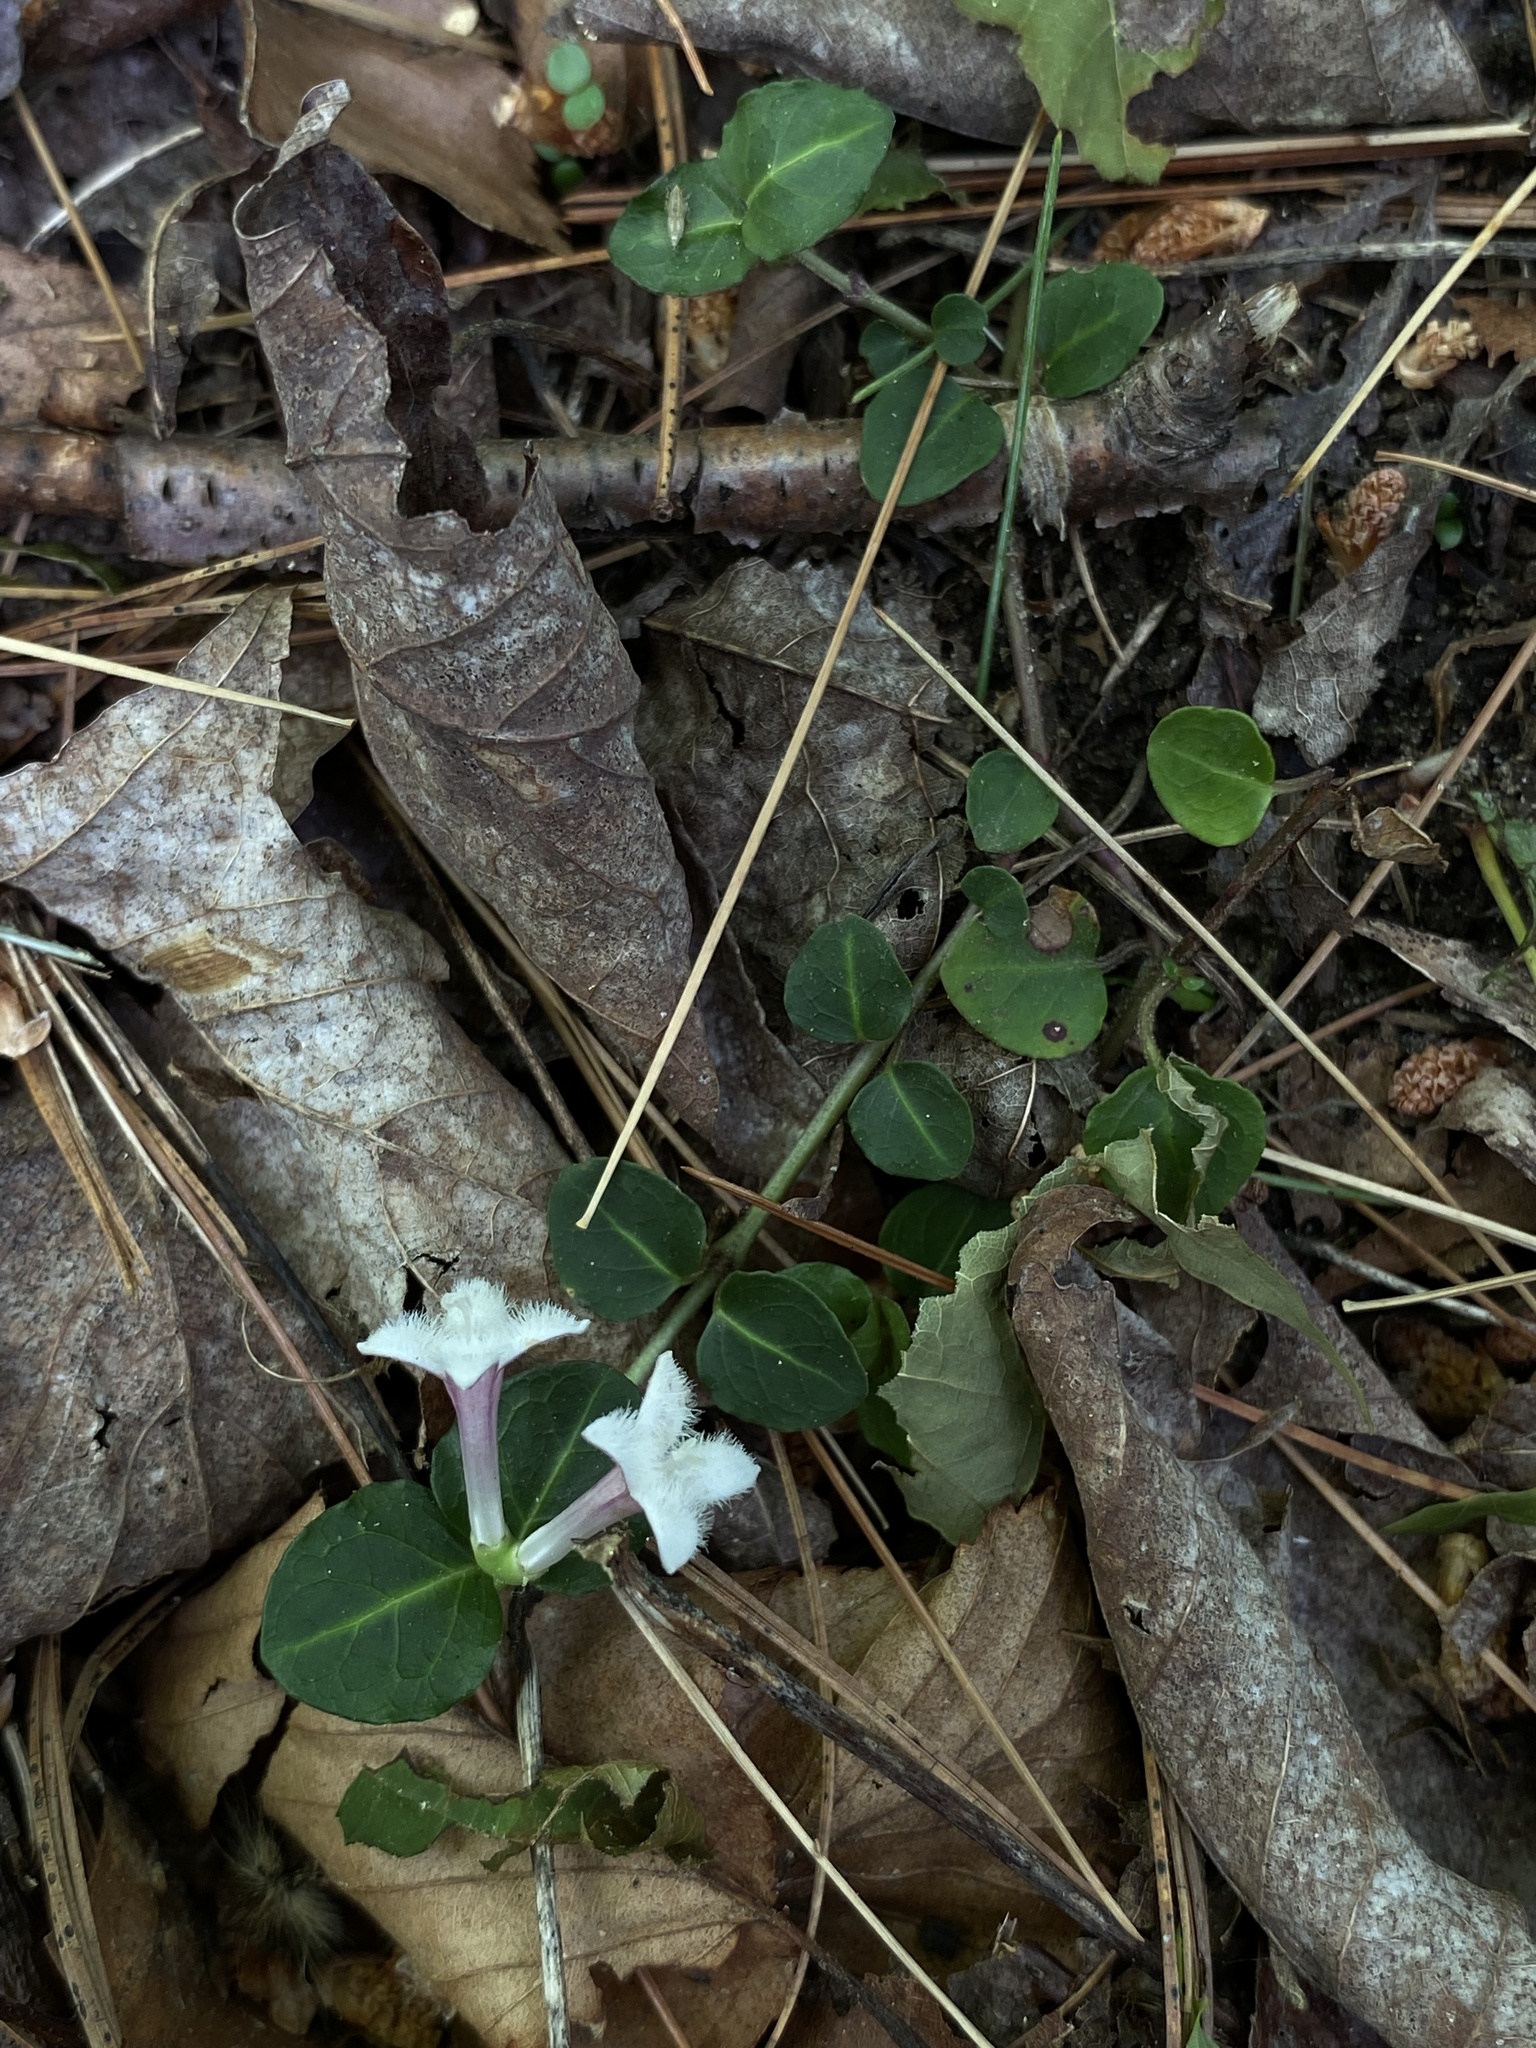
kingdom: Plantae
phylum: Tracheophyta
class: Magnoliopsida
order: Gentianales
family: Rubiaceae
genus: Mitchella
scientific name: Mitchella repens
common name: Partridge-berry
